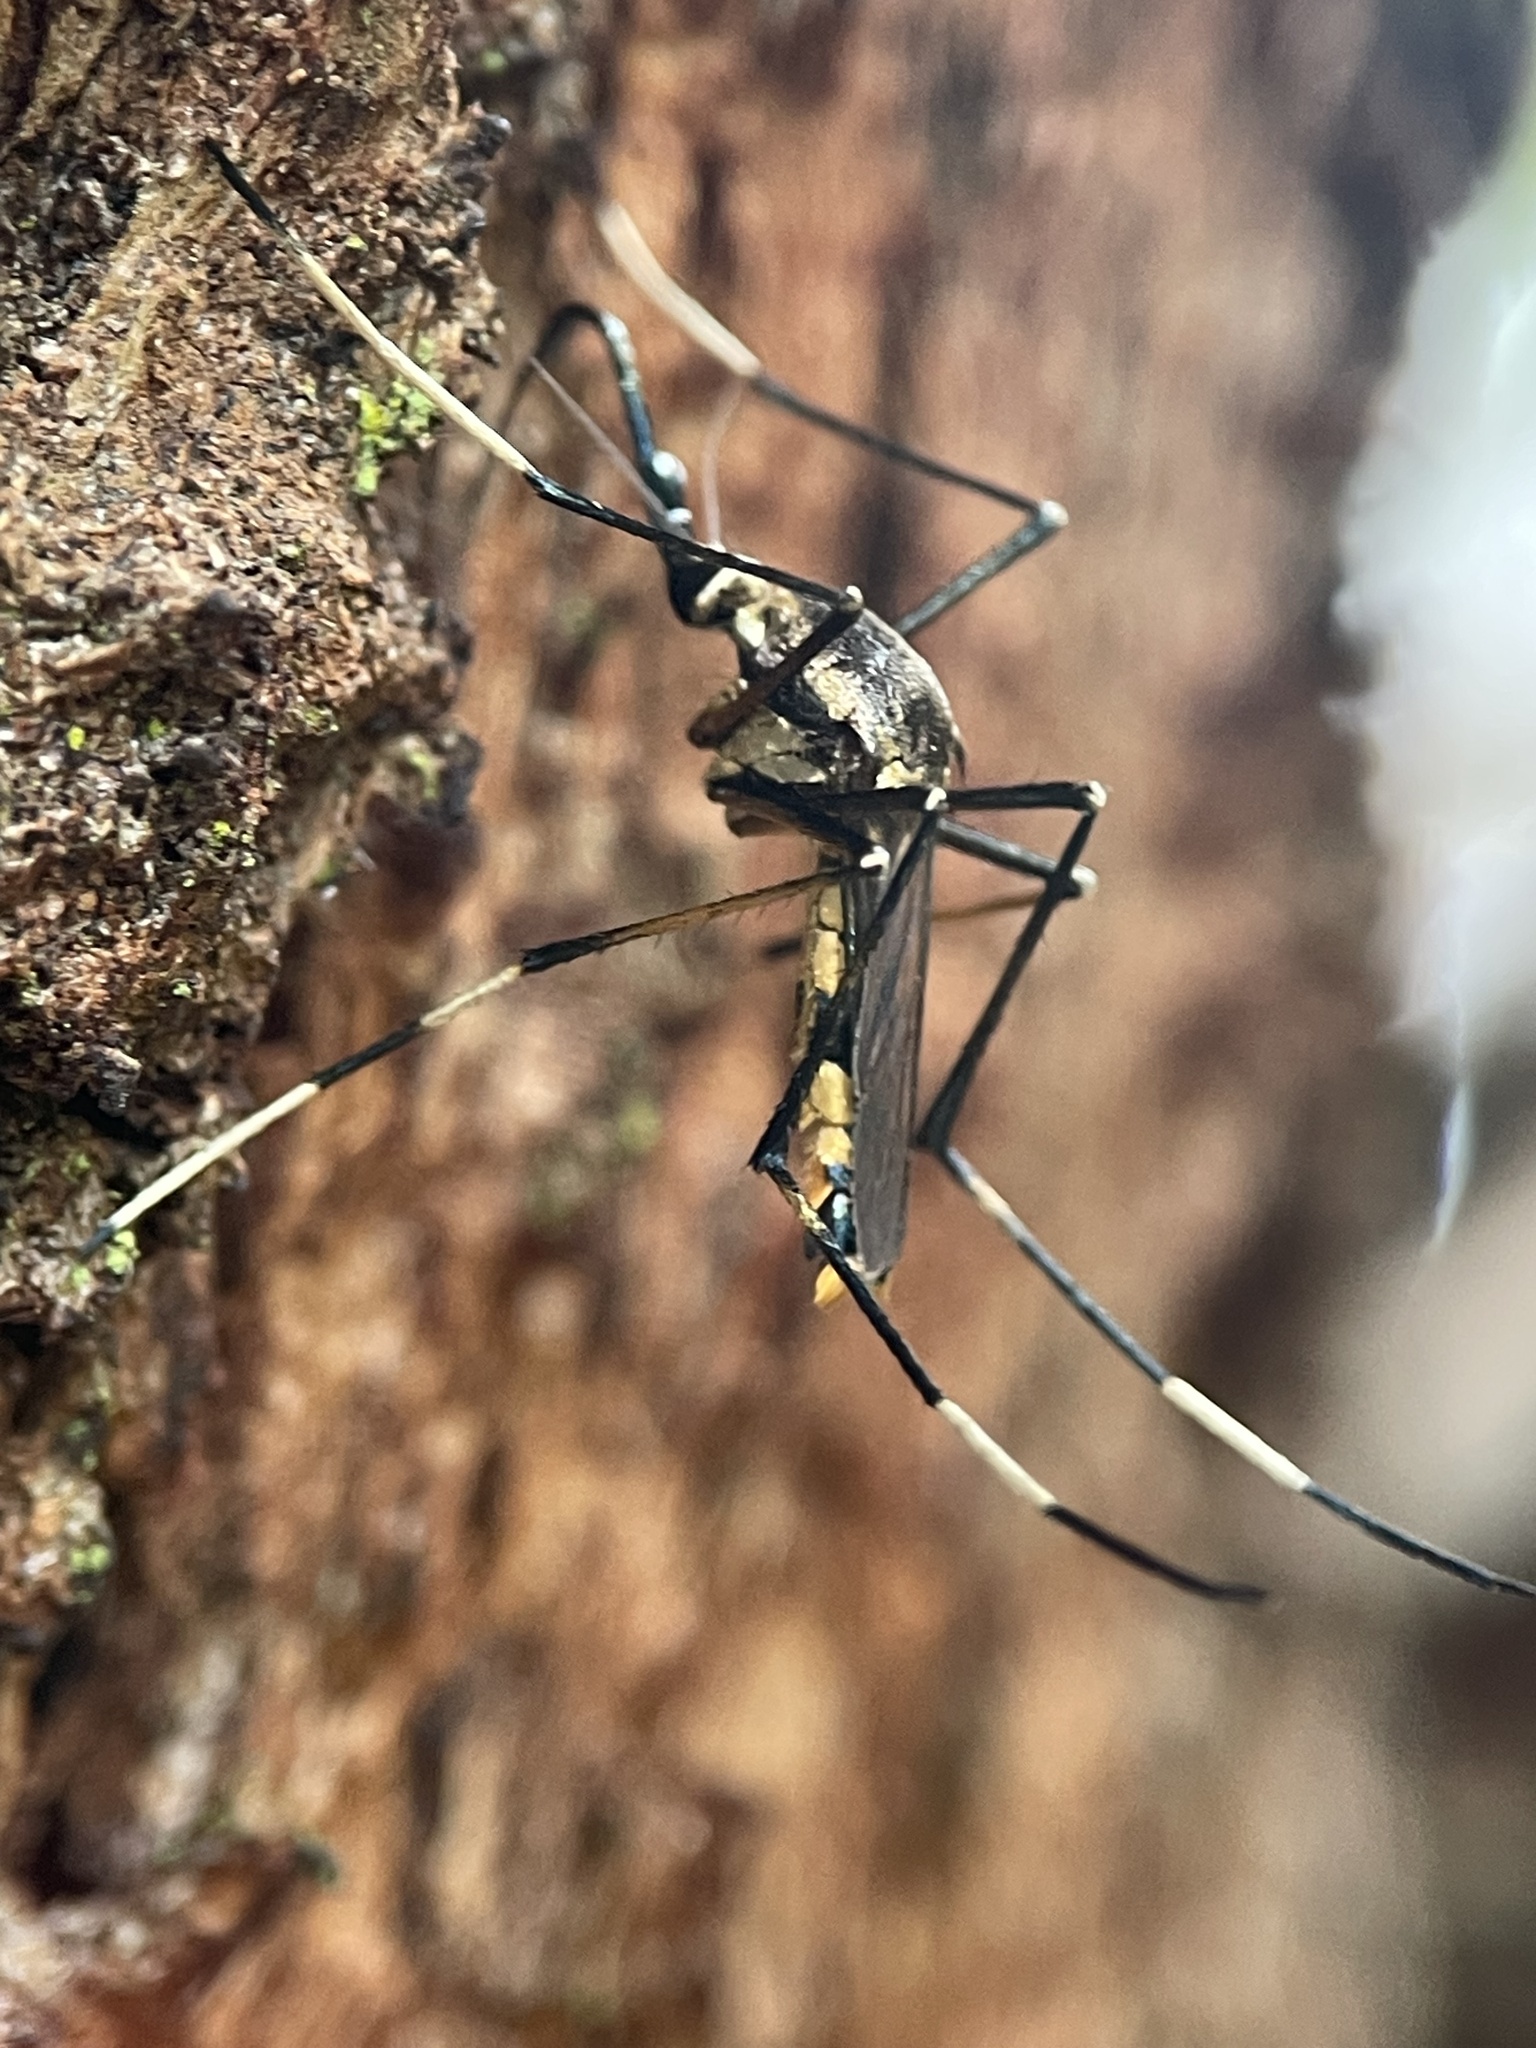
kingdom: Animalia
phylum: Arthropoda
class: Insecta
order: Diptera
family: Culicidae
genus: Toxorhynchites
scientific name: Toxorhynchites speciosus
